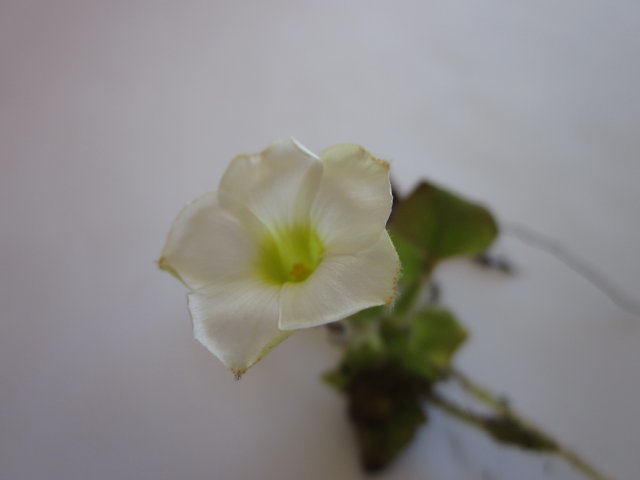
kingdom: Plantae
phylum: Tracheophyta
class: Magnoliopsida
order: Oxalidales
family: Oxalidaceae
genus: Oxalis
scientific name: Oxalis algoensis
